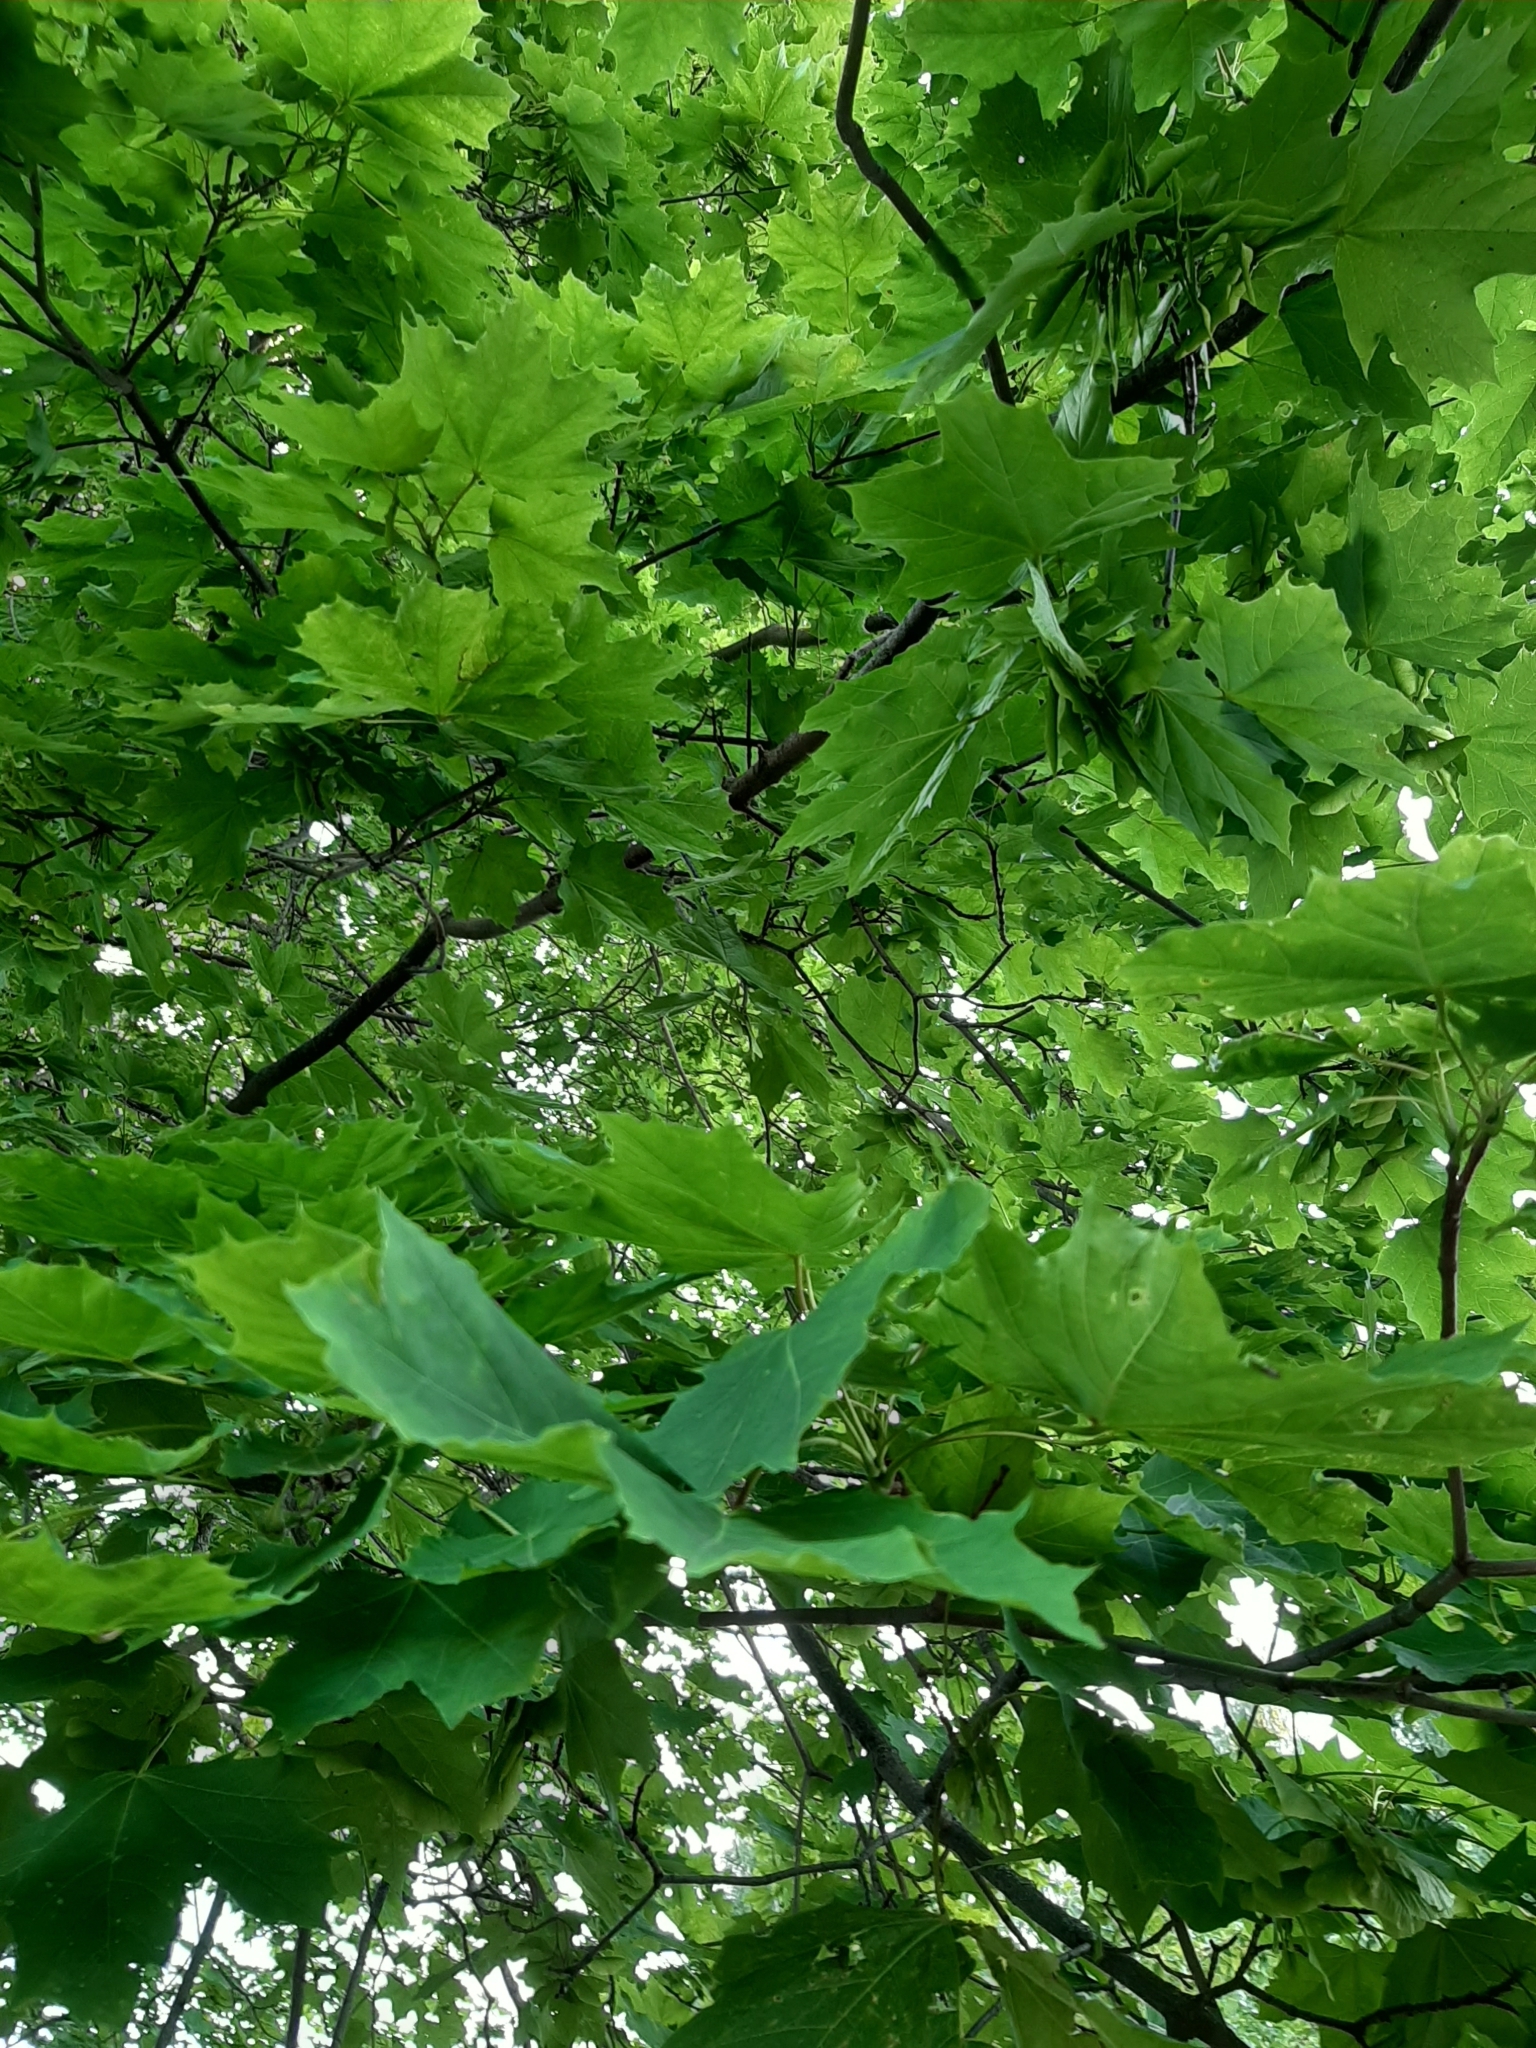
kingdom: Plantae
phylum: Tracheophyta
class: Magnoliopsida
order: Sapindales
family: Sapindaceae
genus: Acer
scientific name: Acer platanoides
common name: Norway maple
